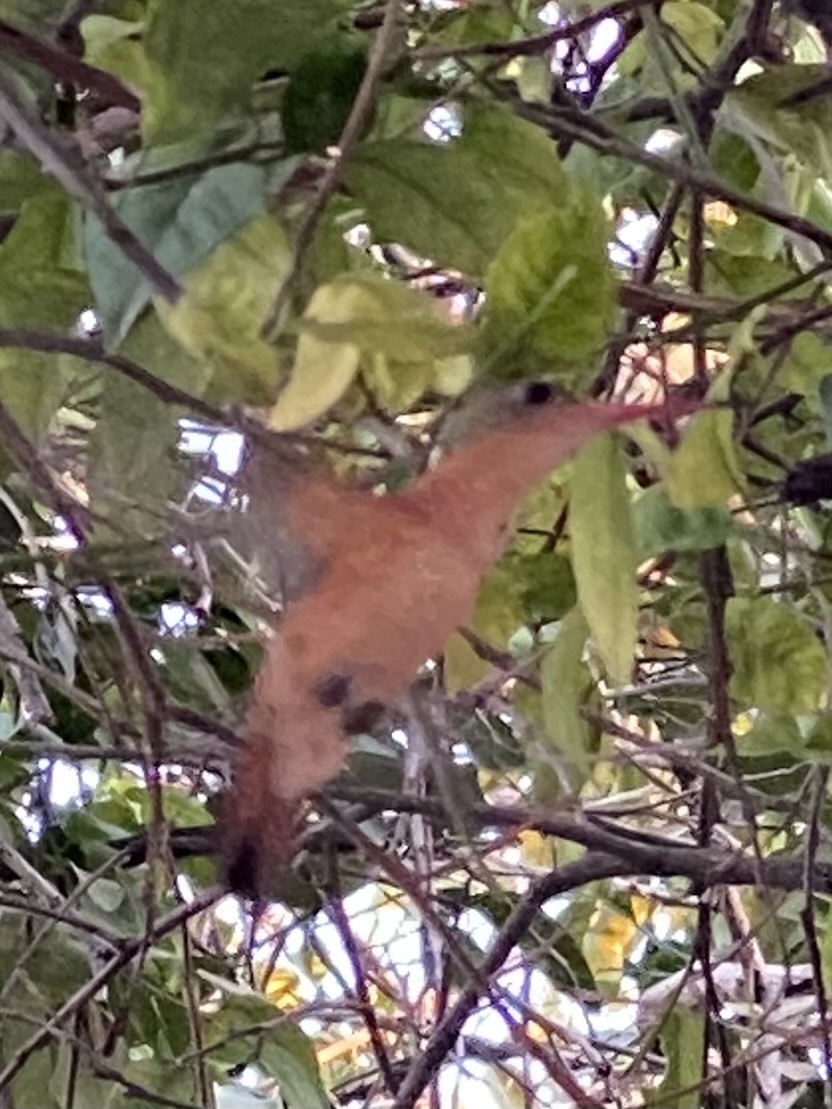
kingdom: Animalia
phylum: Chordata
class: Aves
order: Apodiformes
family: Trochilidae
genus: Amazilia
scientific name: Amazilia rutila
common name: Cinnamon hummingbird
